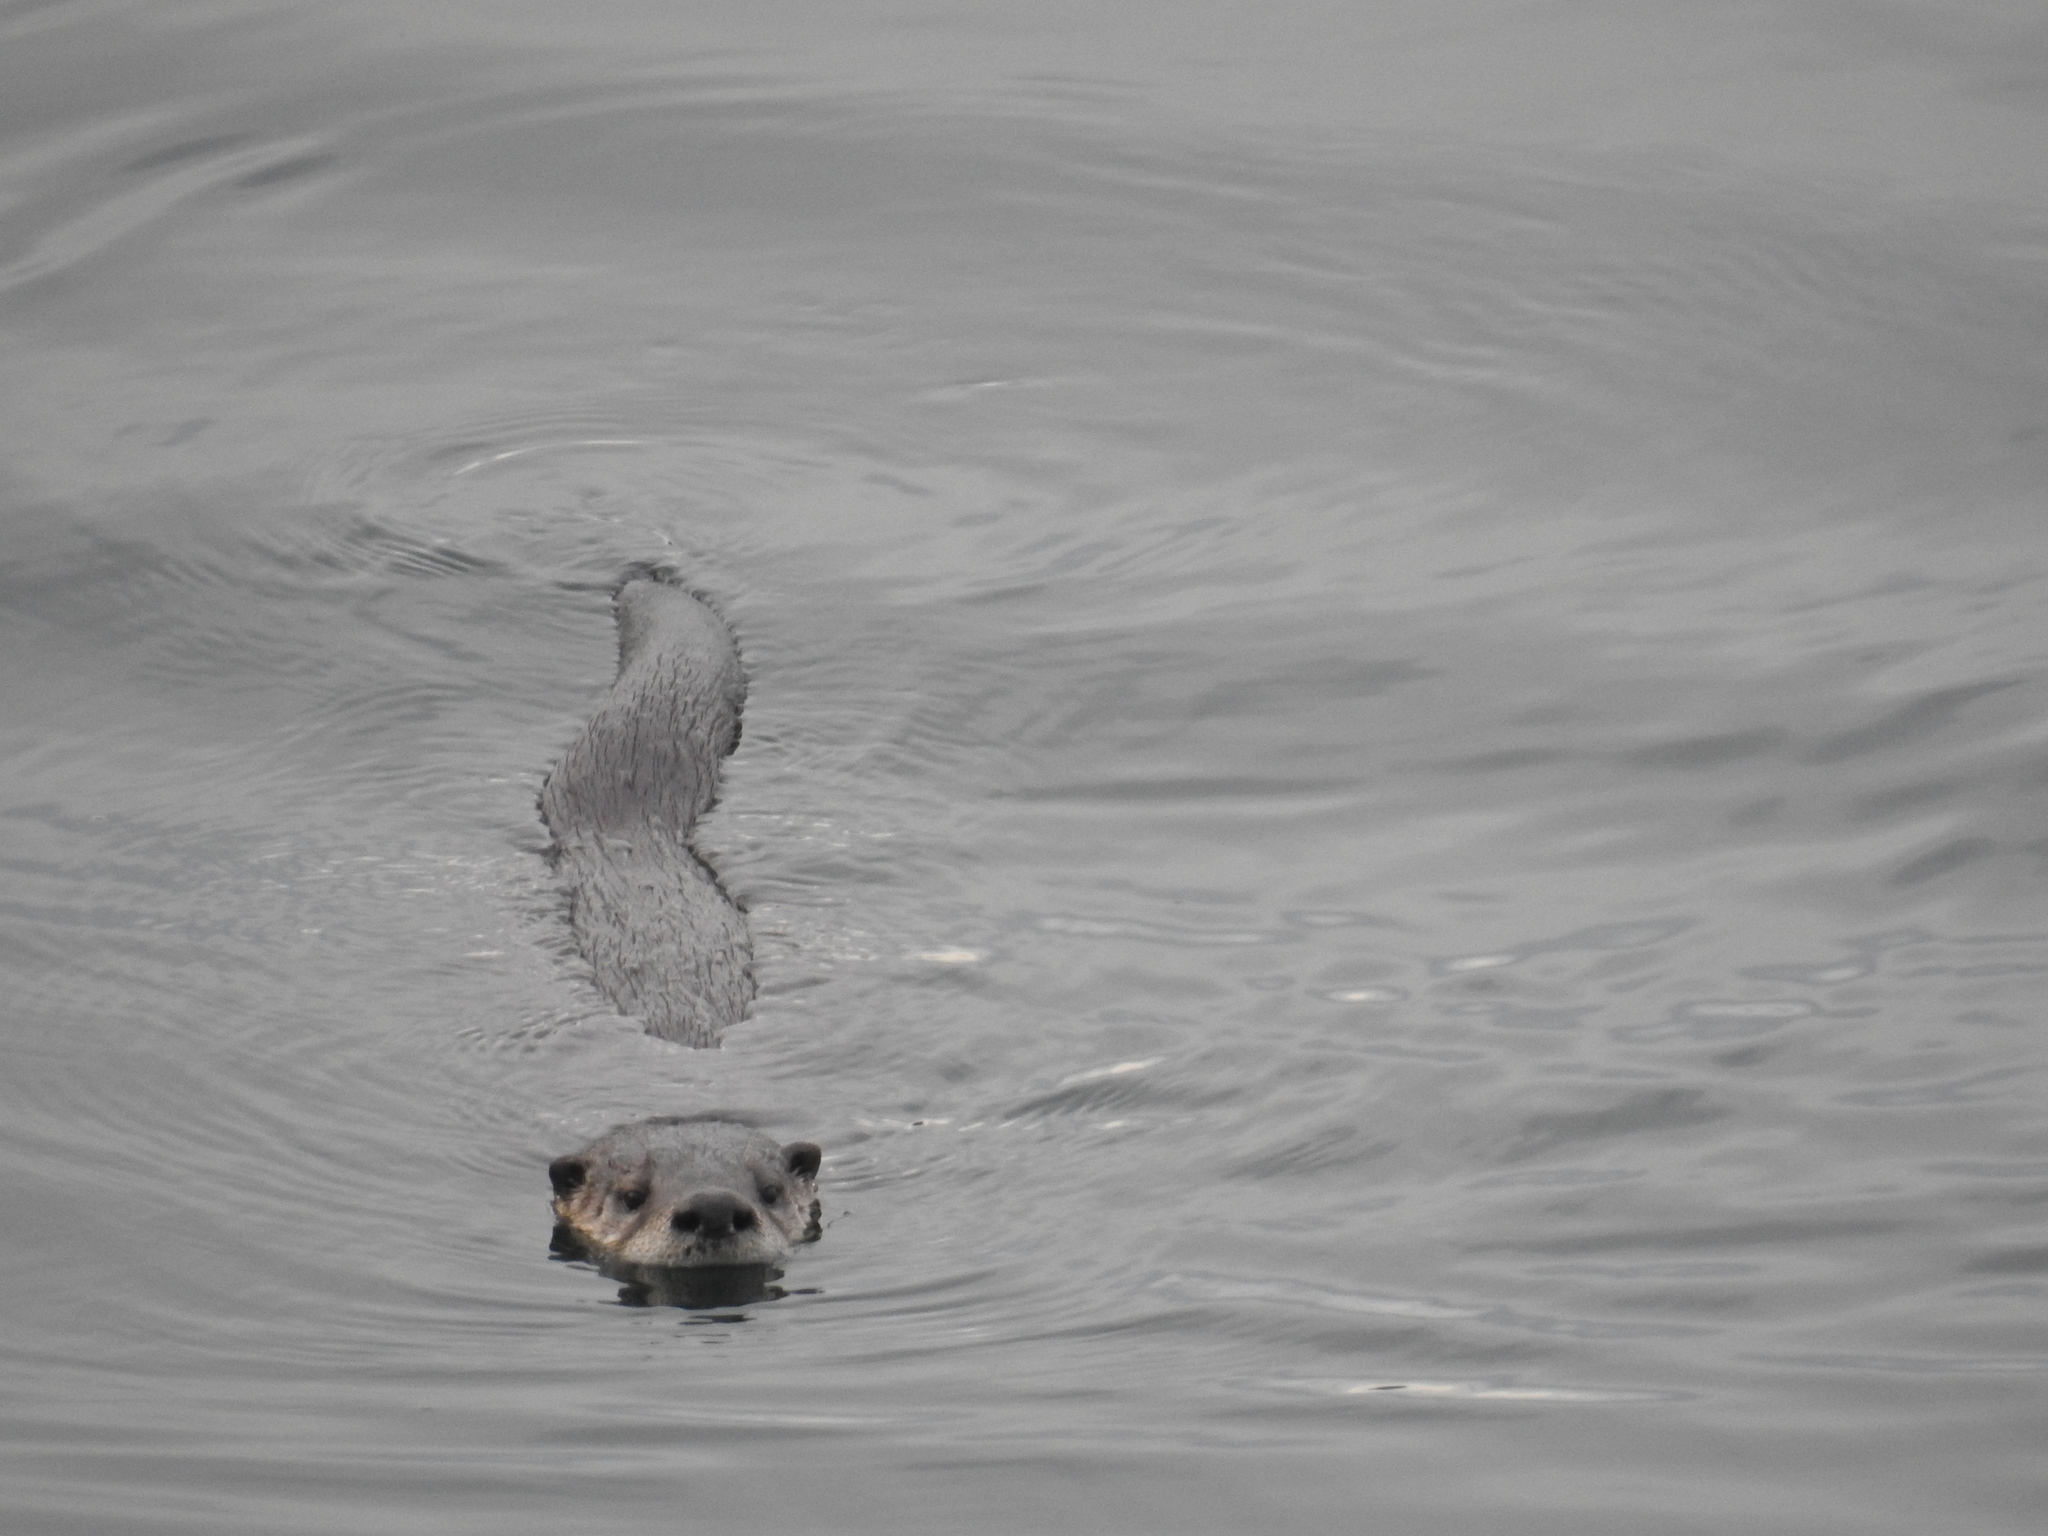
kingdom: Animalia
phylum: Chordata
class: Mammalia
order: Carnivora
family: Mustelidae
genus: Lontra
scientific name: Lontra canadensis
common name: North american river otter
